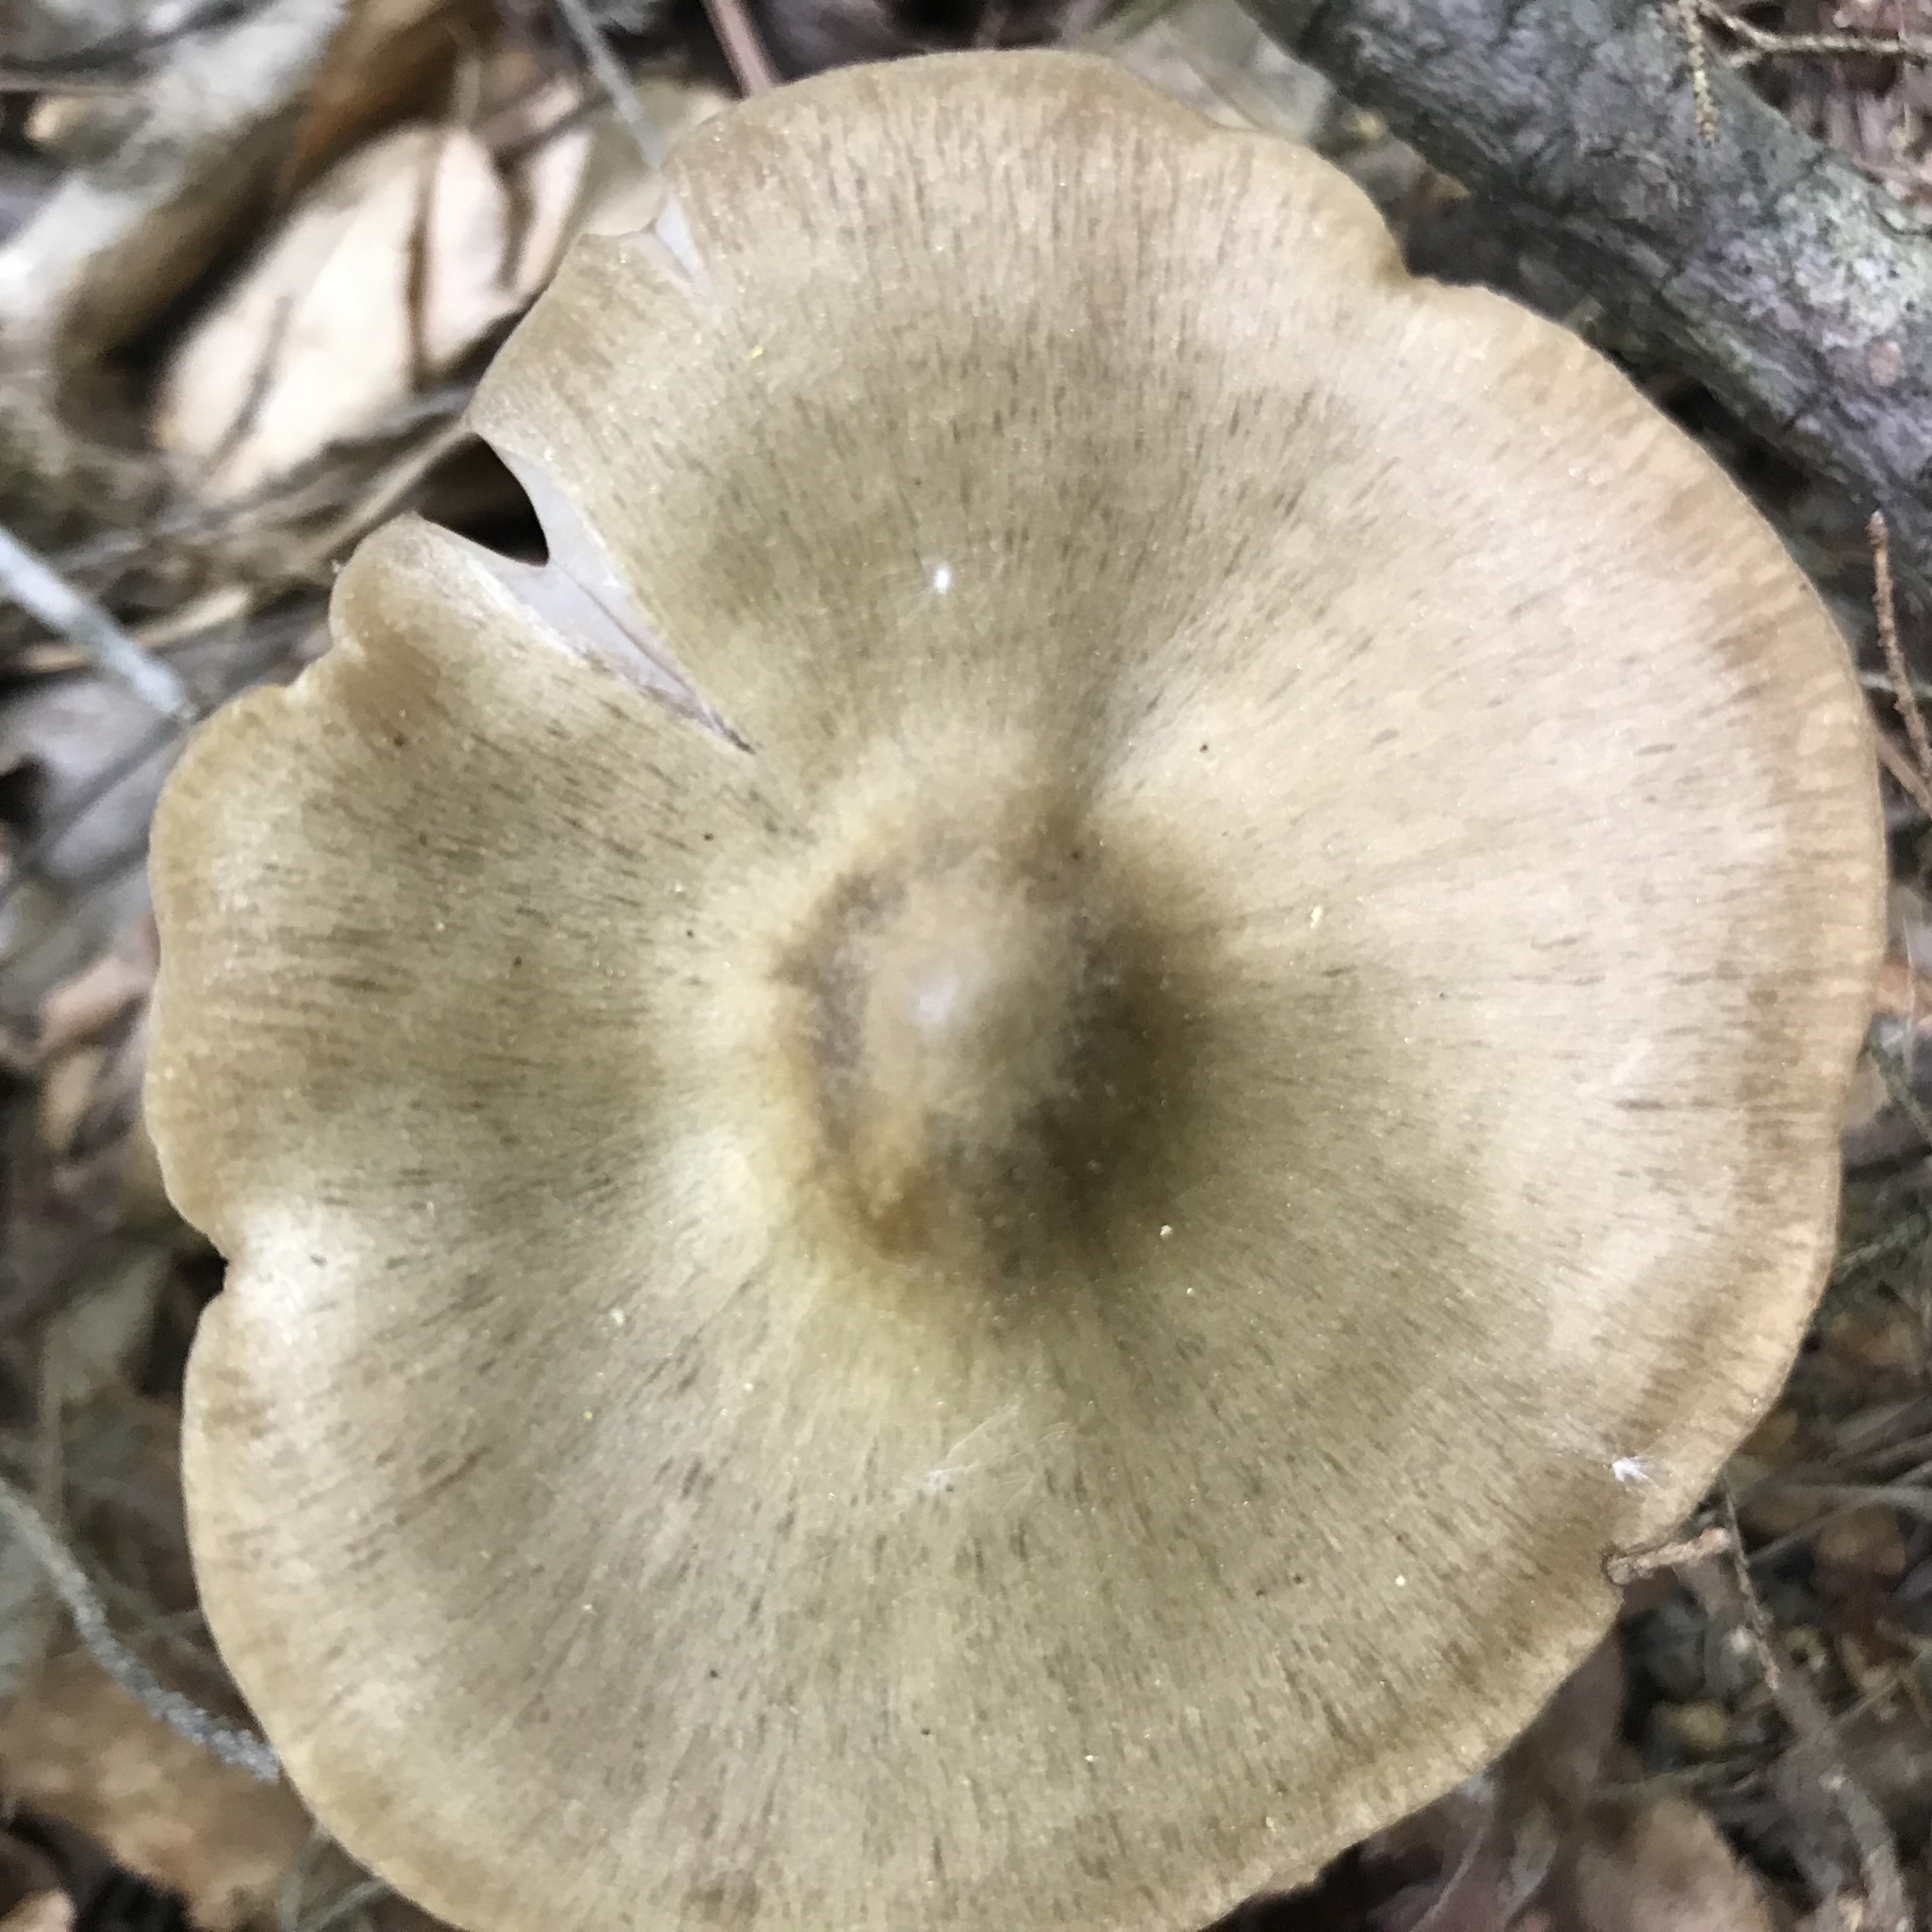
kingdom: Fungi
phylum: Basidiomycota
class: Agaricomycetes
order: Agaricales
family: Entolomataceae
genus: Entoloma
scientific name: Entoloma strictius
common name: Straight-stalked entoloma
